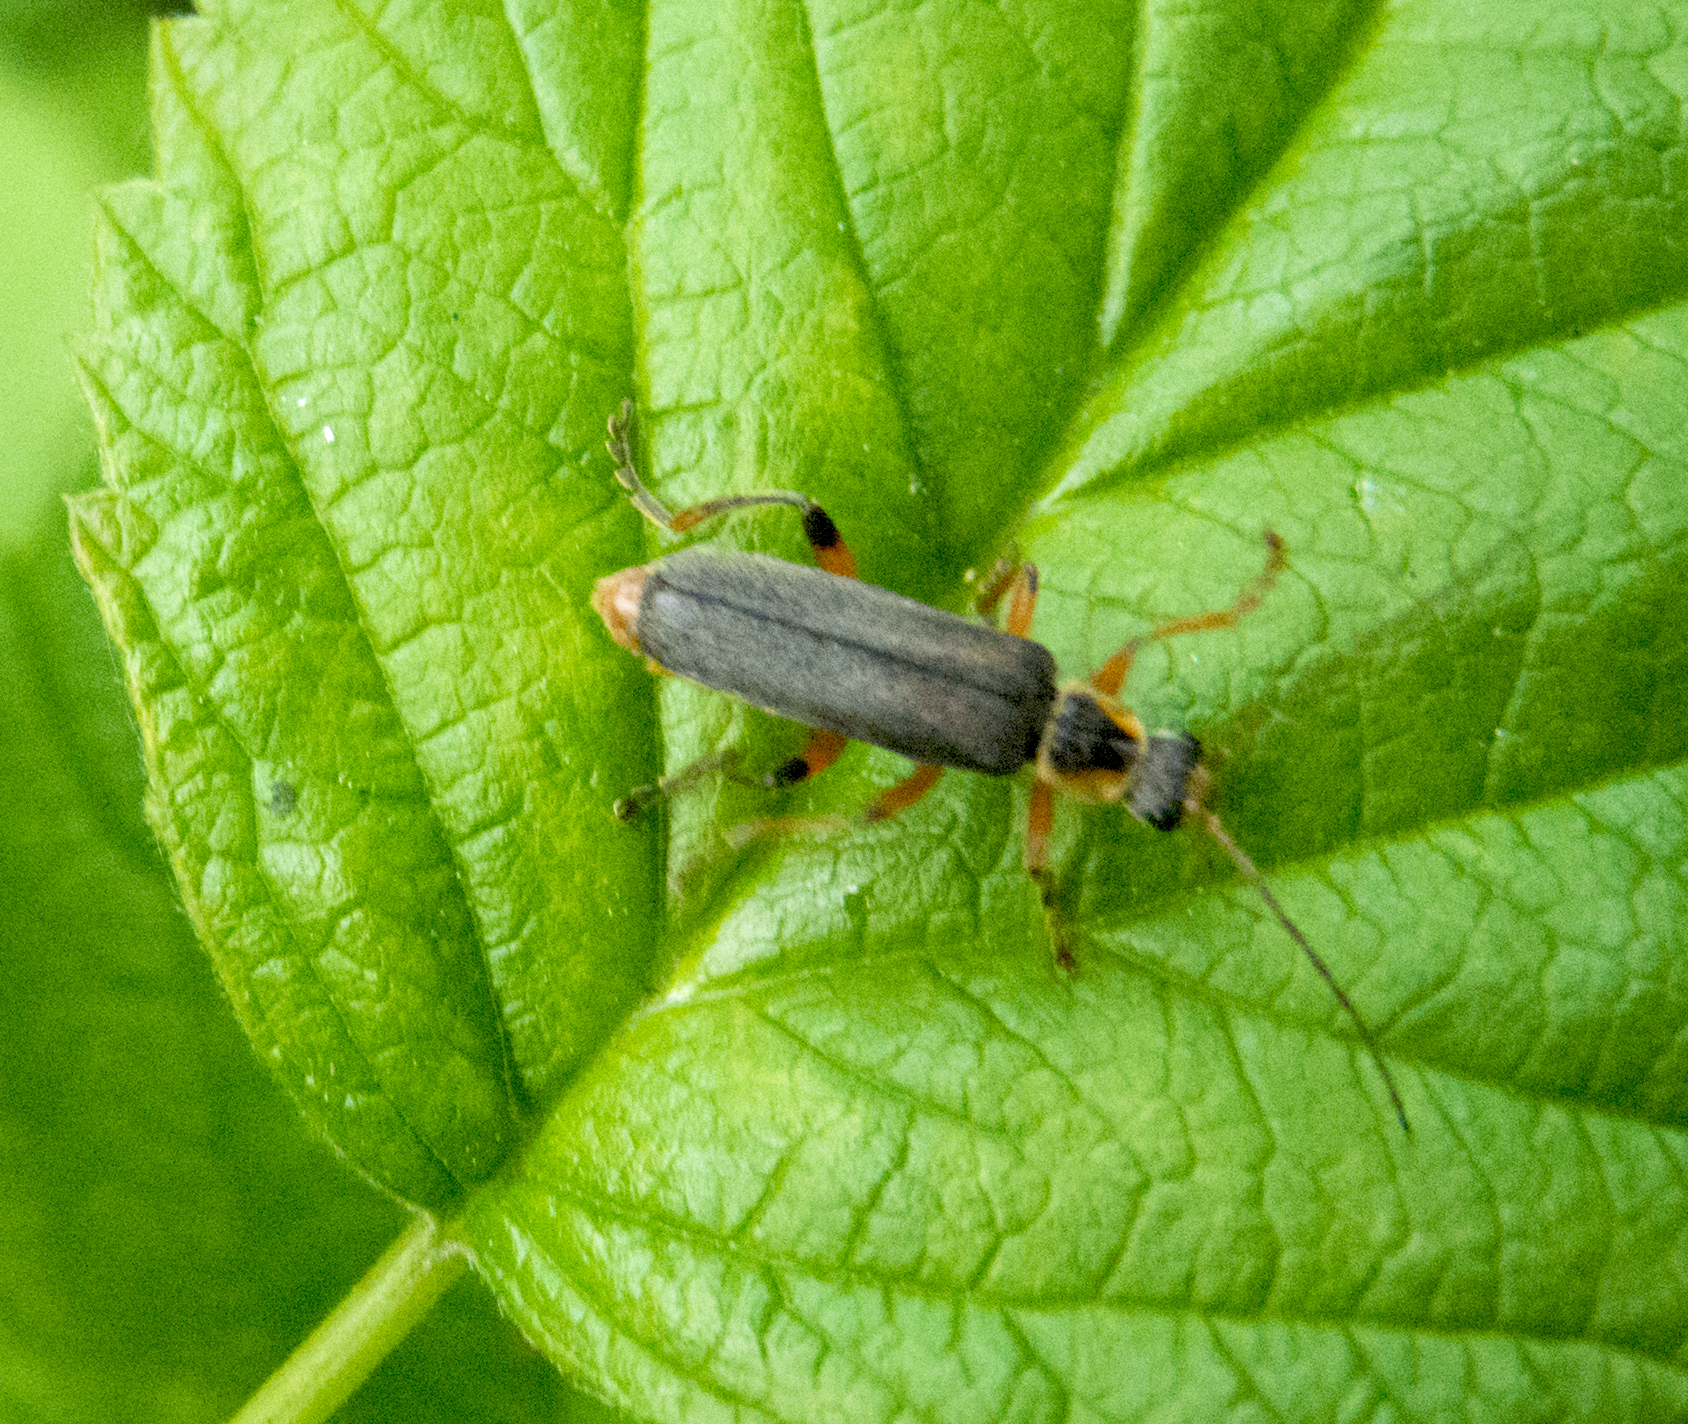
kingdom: Animalia
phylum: Arthropoda
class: Insecta
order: Coleoptera
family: Cantharidae
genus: Cantharis
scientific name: Cantharis nigricans
